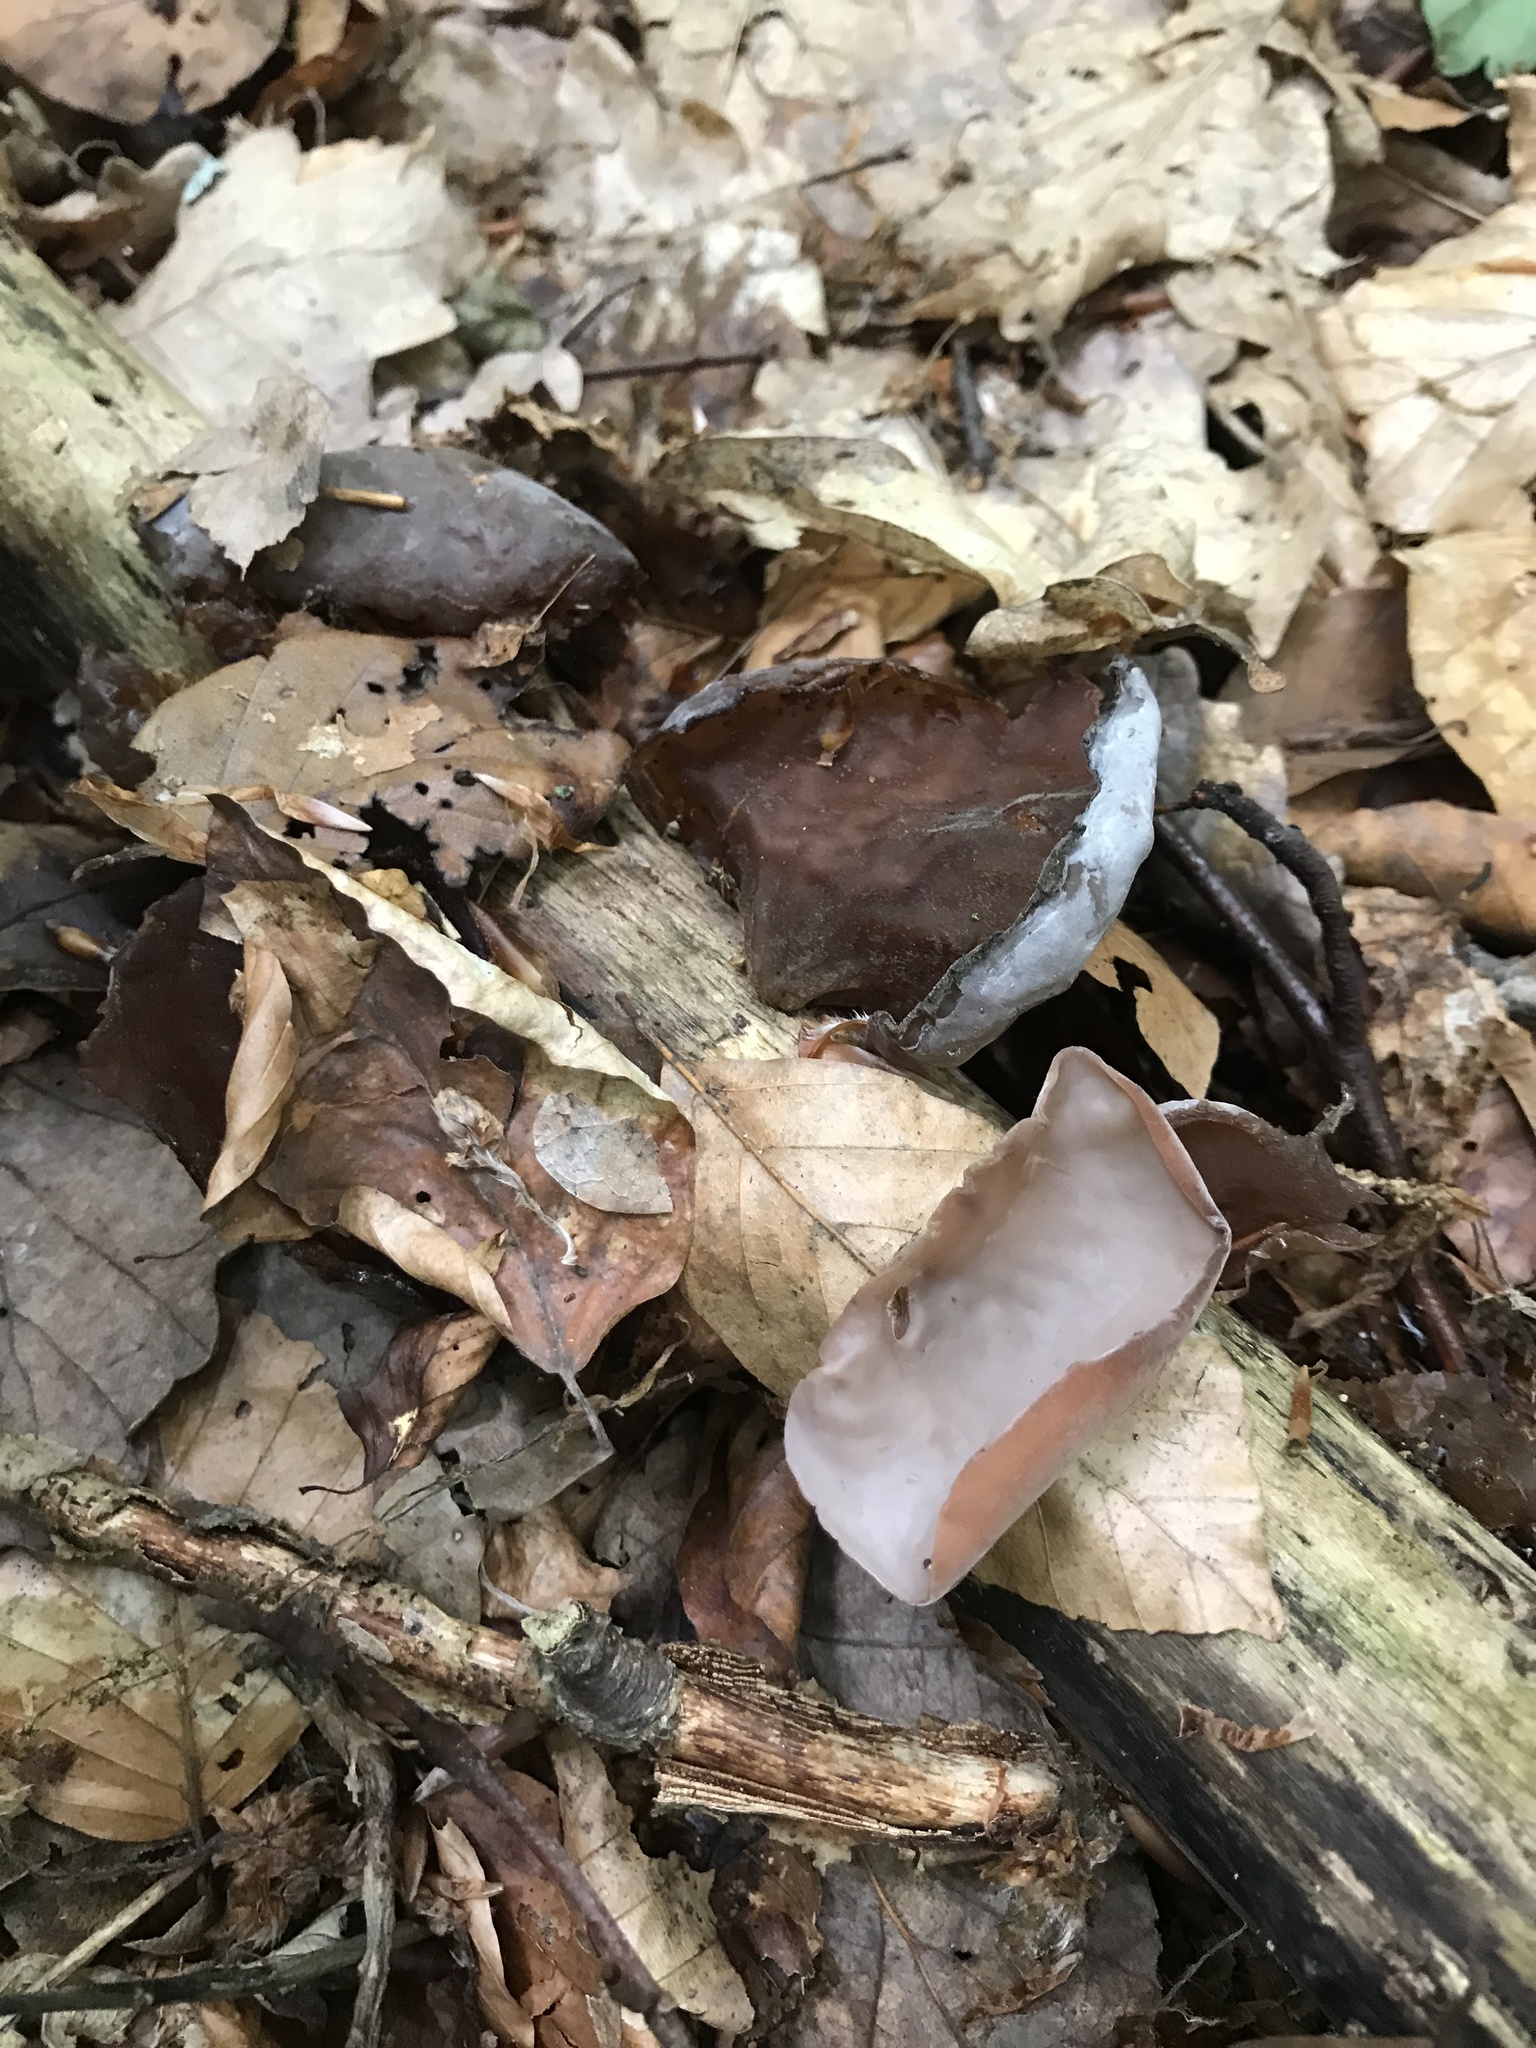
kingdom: Fungi
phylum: Basidiomycota
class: Agaricomycetes
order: Auriculariales
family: Auriculariaceae
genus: Auricularia
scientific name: Auricularia auricula-judae
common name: Jelly ear
